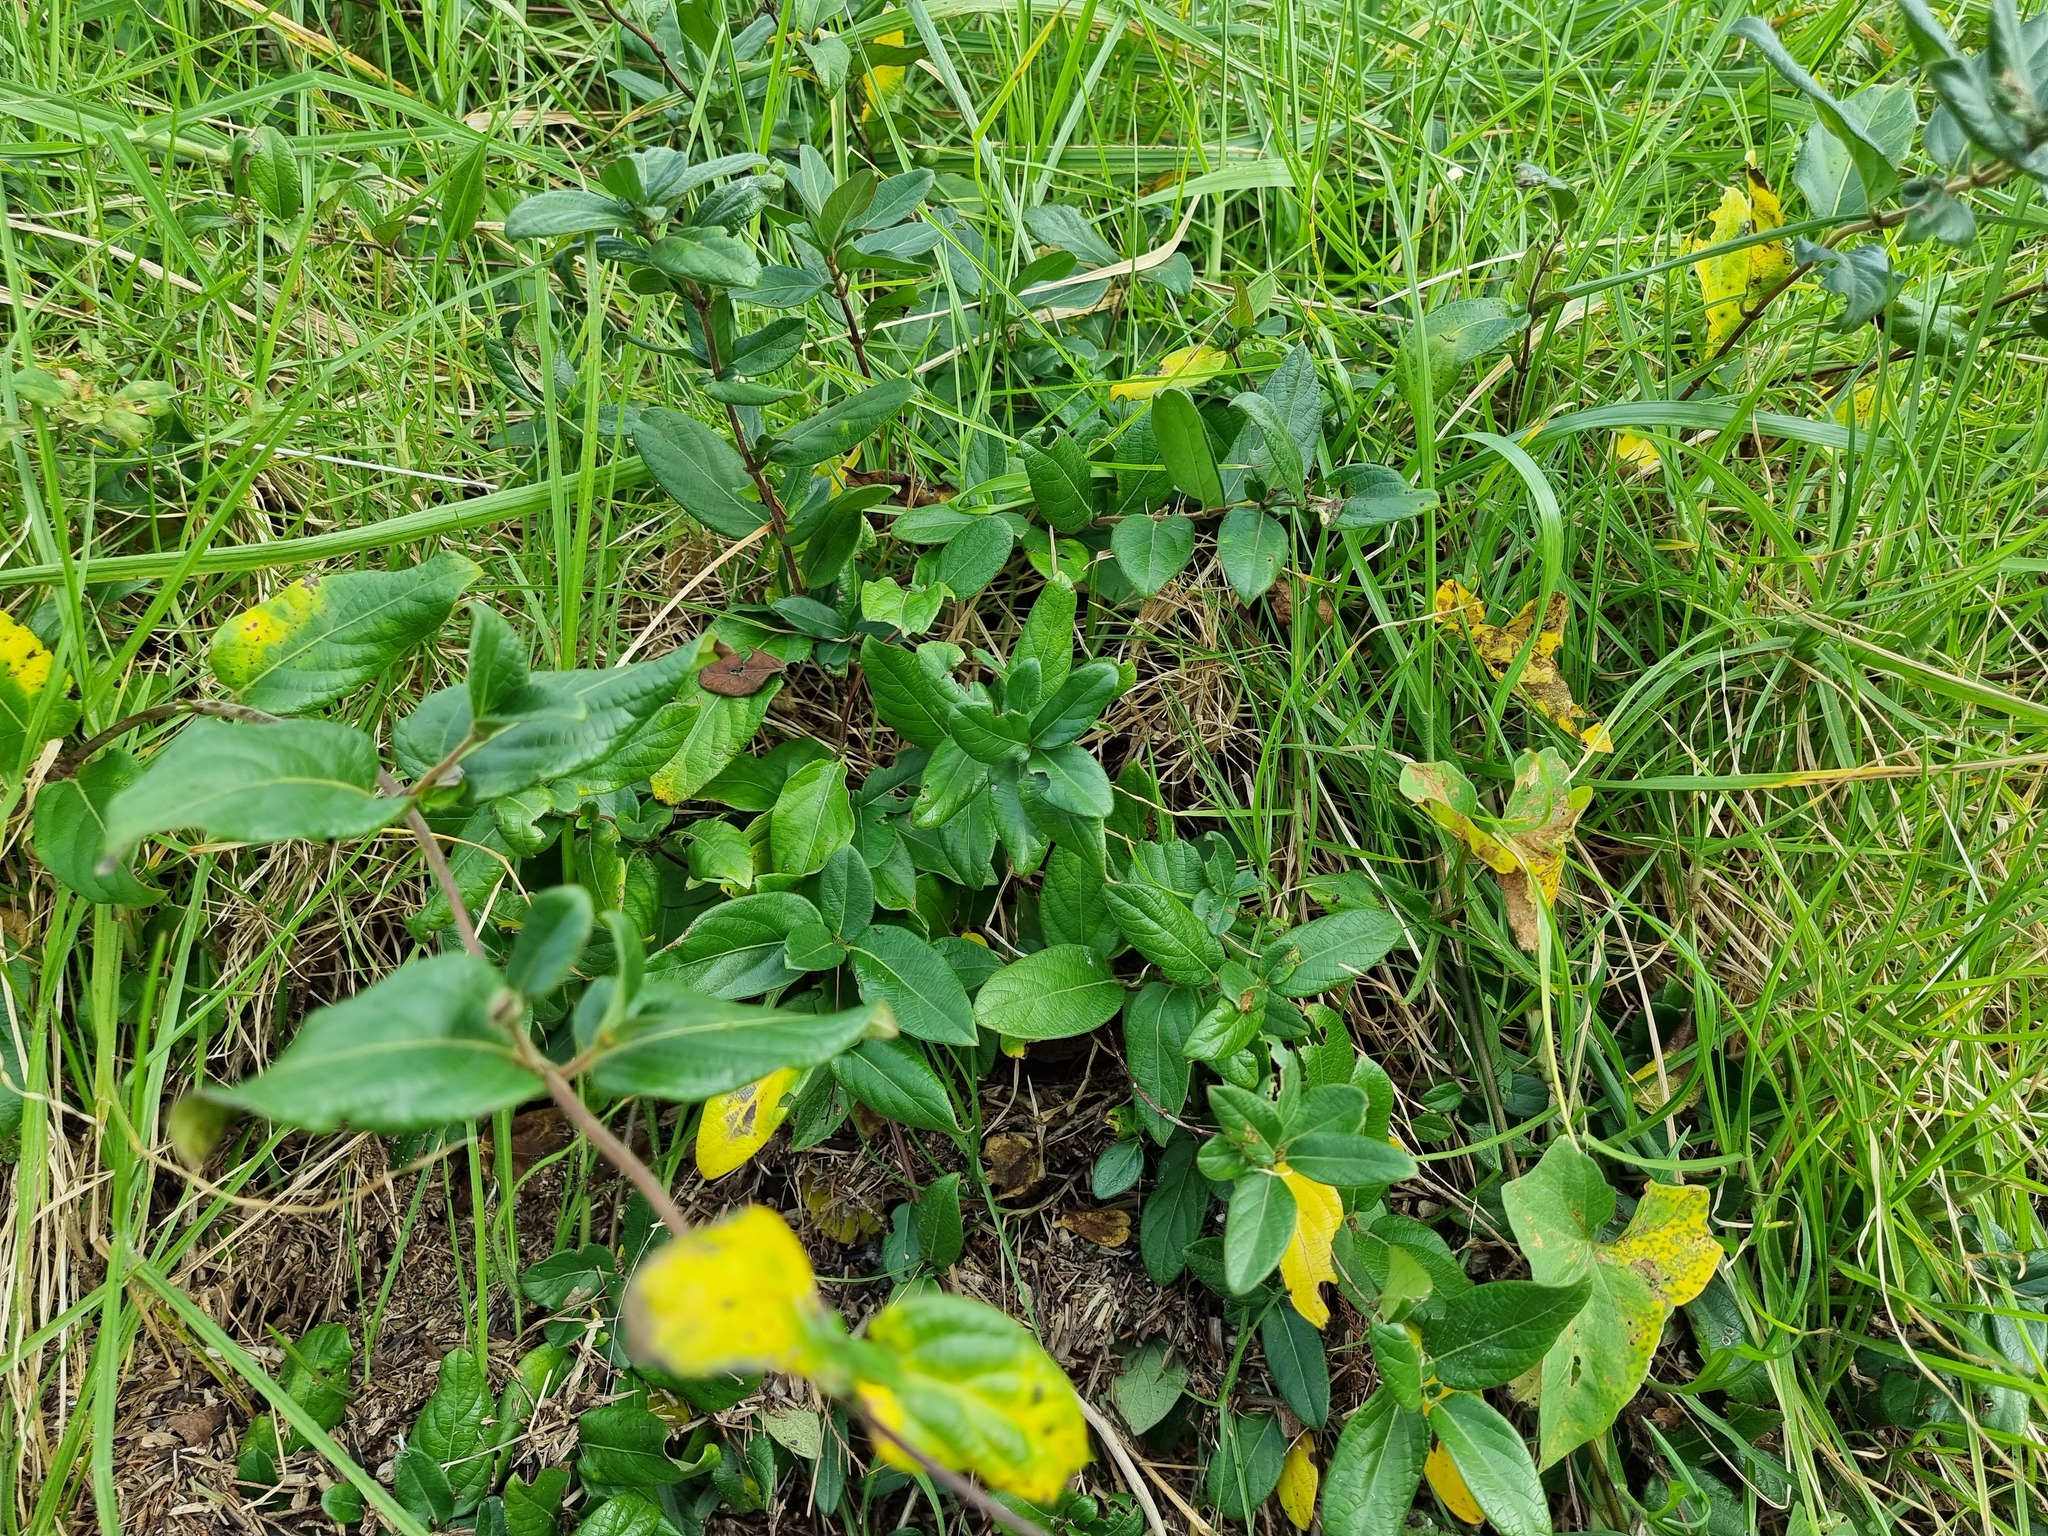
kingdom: Plantae
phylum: Tracheophyta
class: Magnoliopsida
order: Dipsacales
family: Caprifoliaceae
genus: Lonicera
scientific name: Lonicera japonica
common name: Japanese honeysuckle
